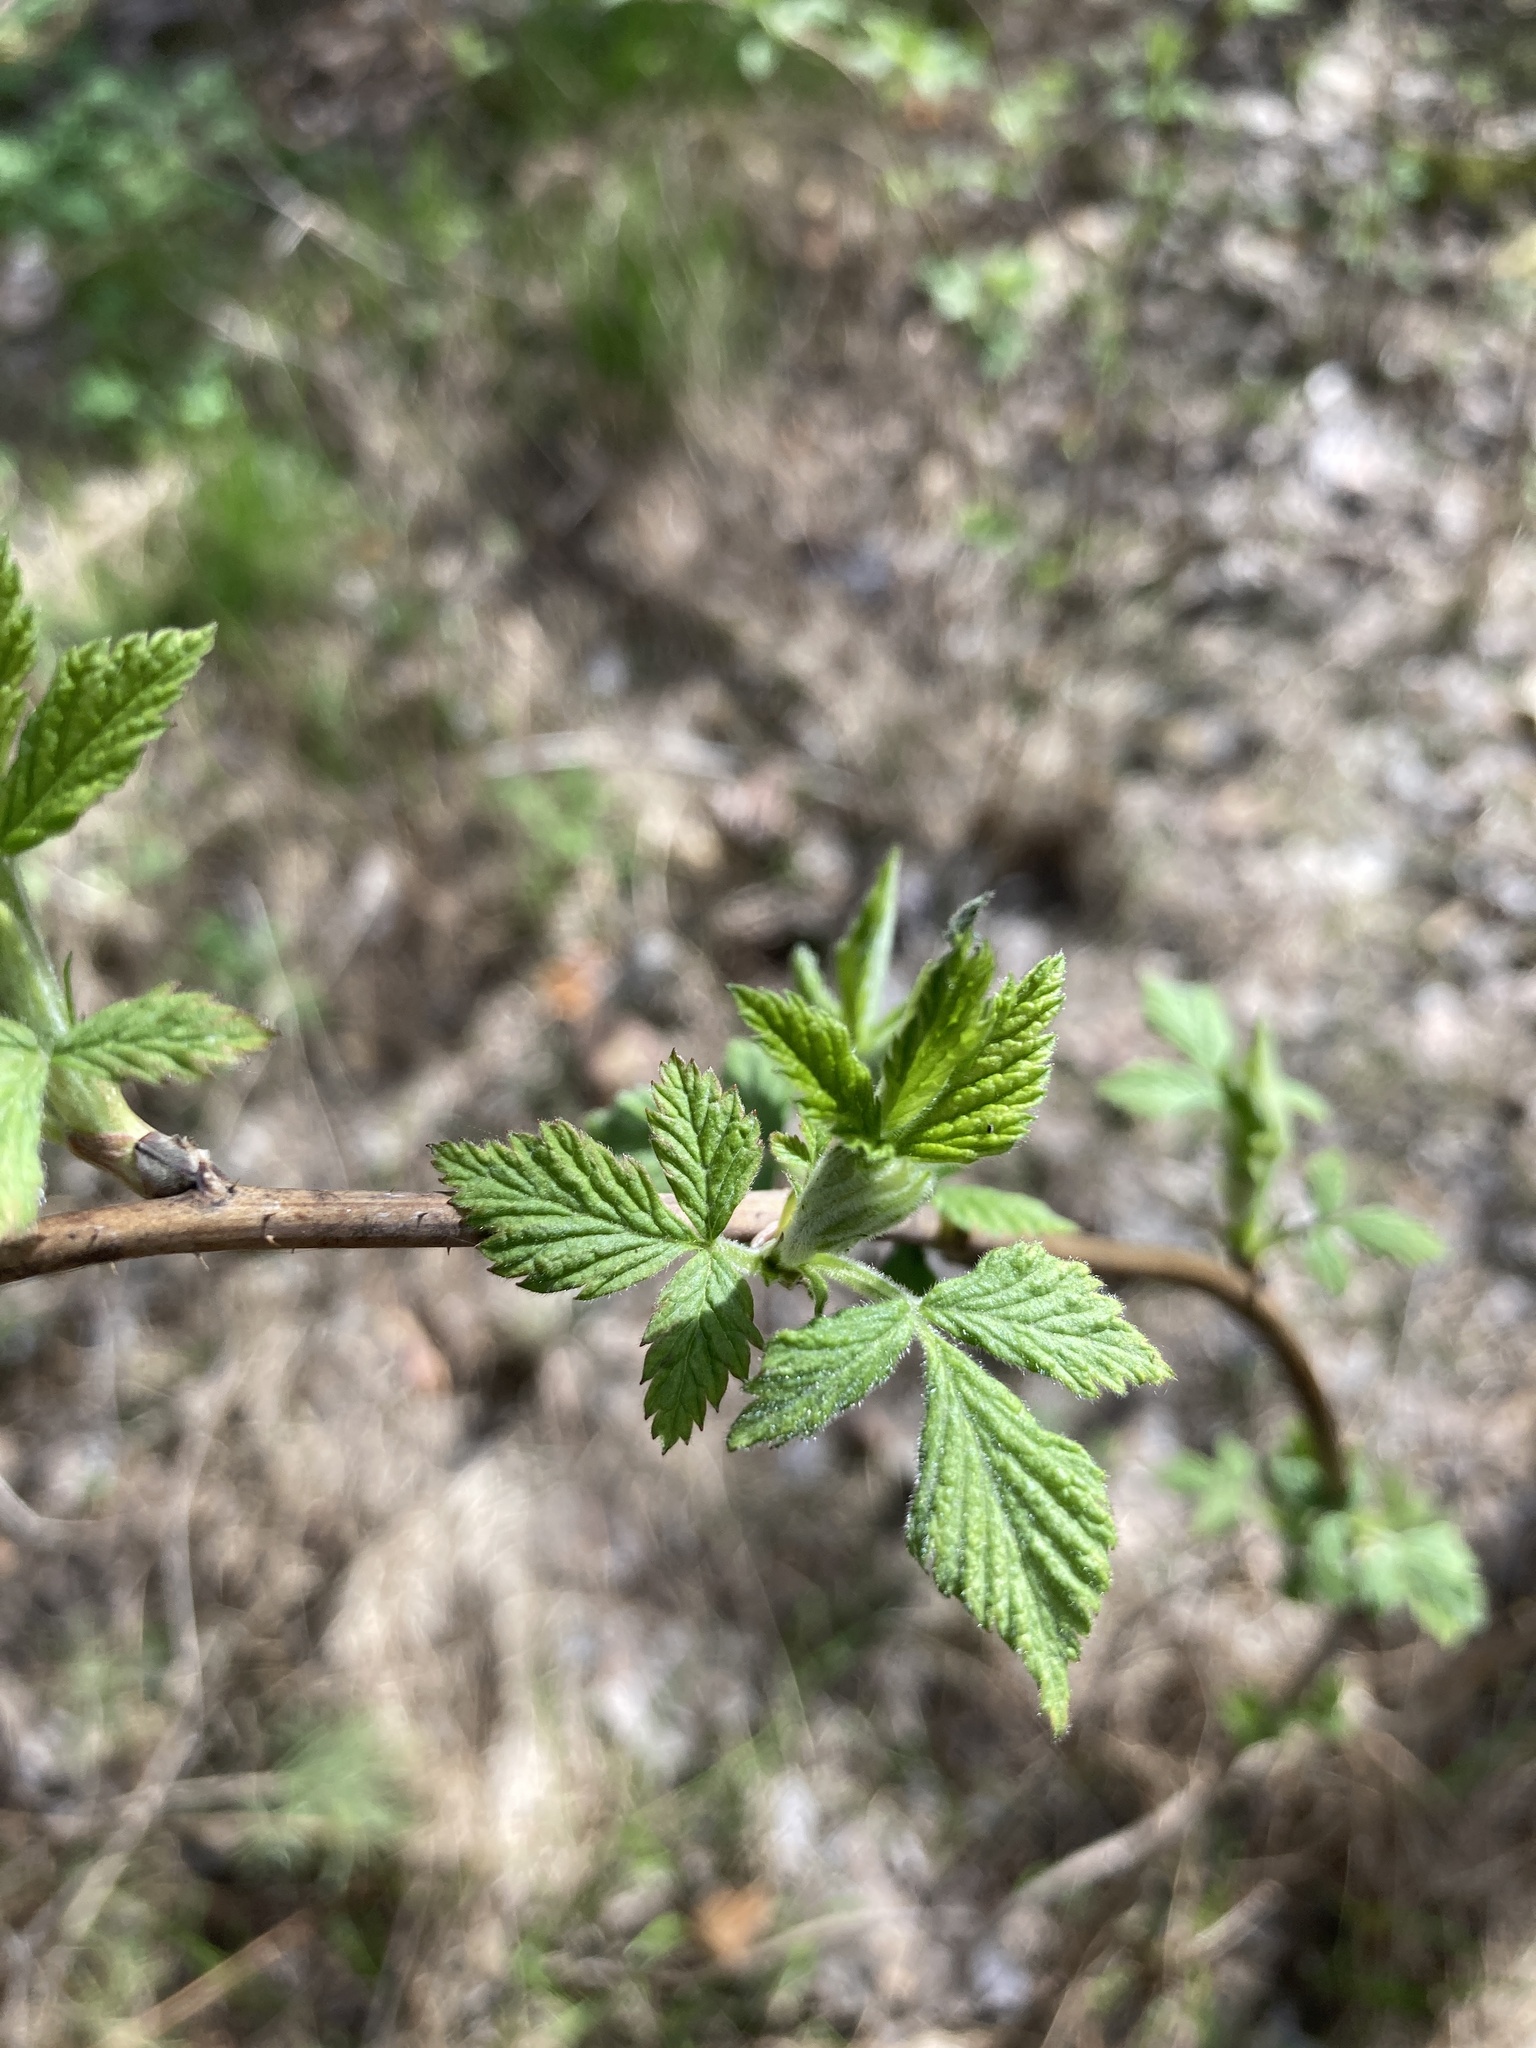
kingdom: Plantae
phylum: Tracheophyta
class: Magnoliopsida
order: Rosales
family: Rosaceae
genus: Rubus
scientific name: Rubus idaeus
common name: Raspberry
